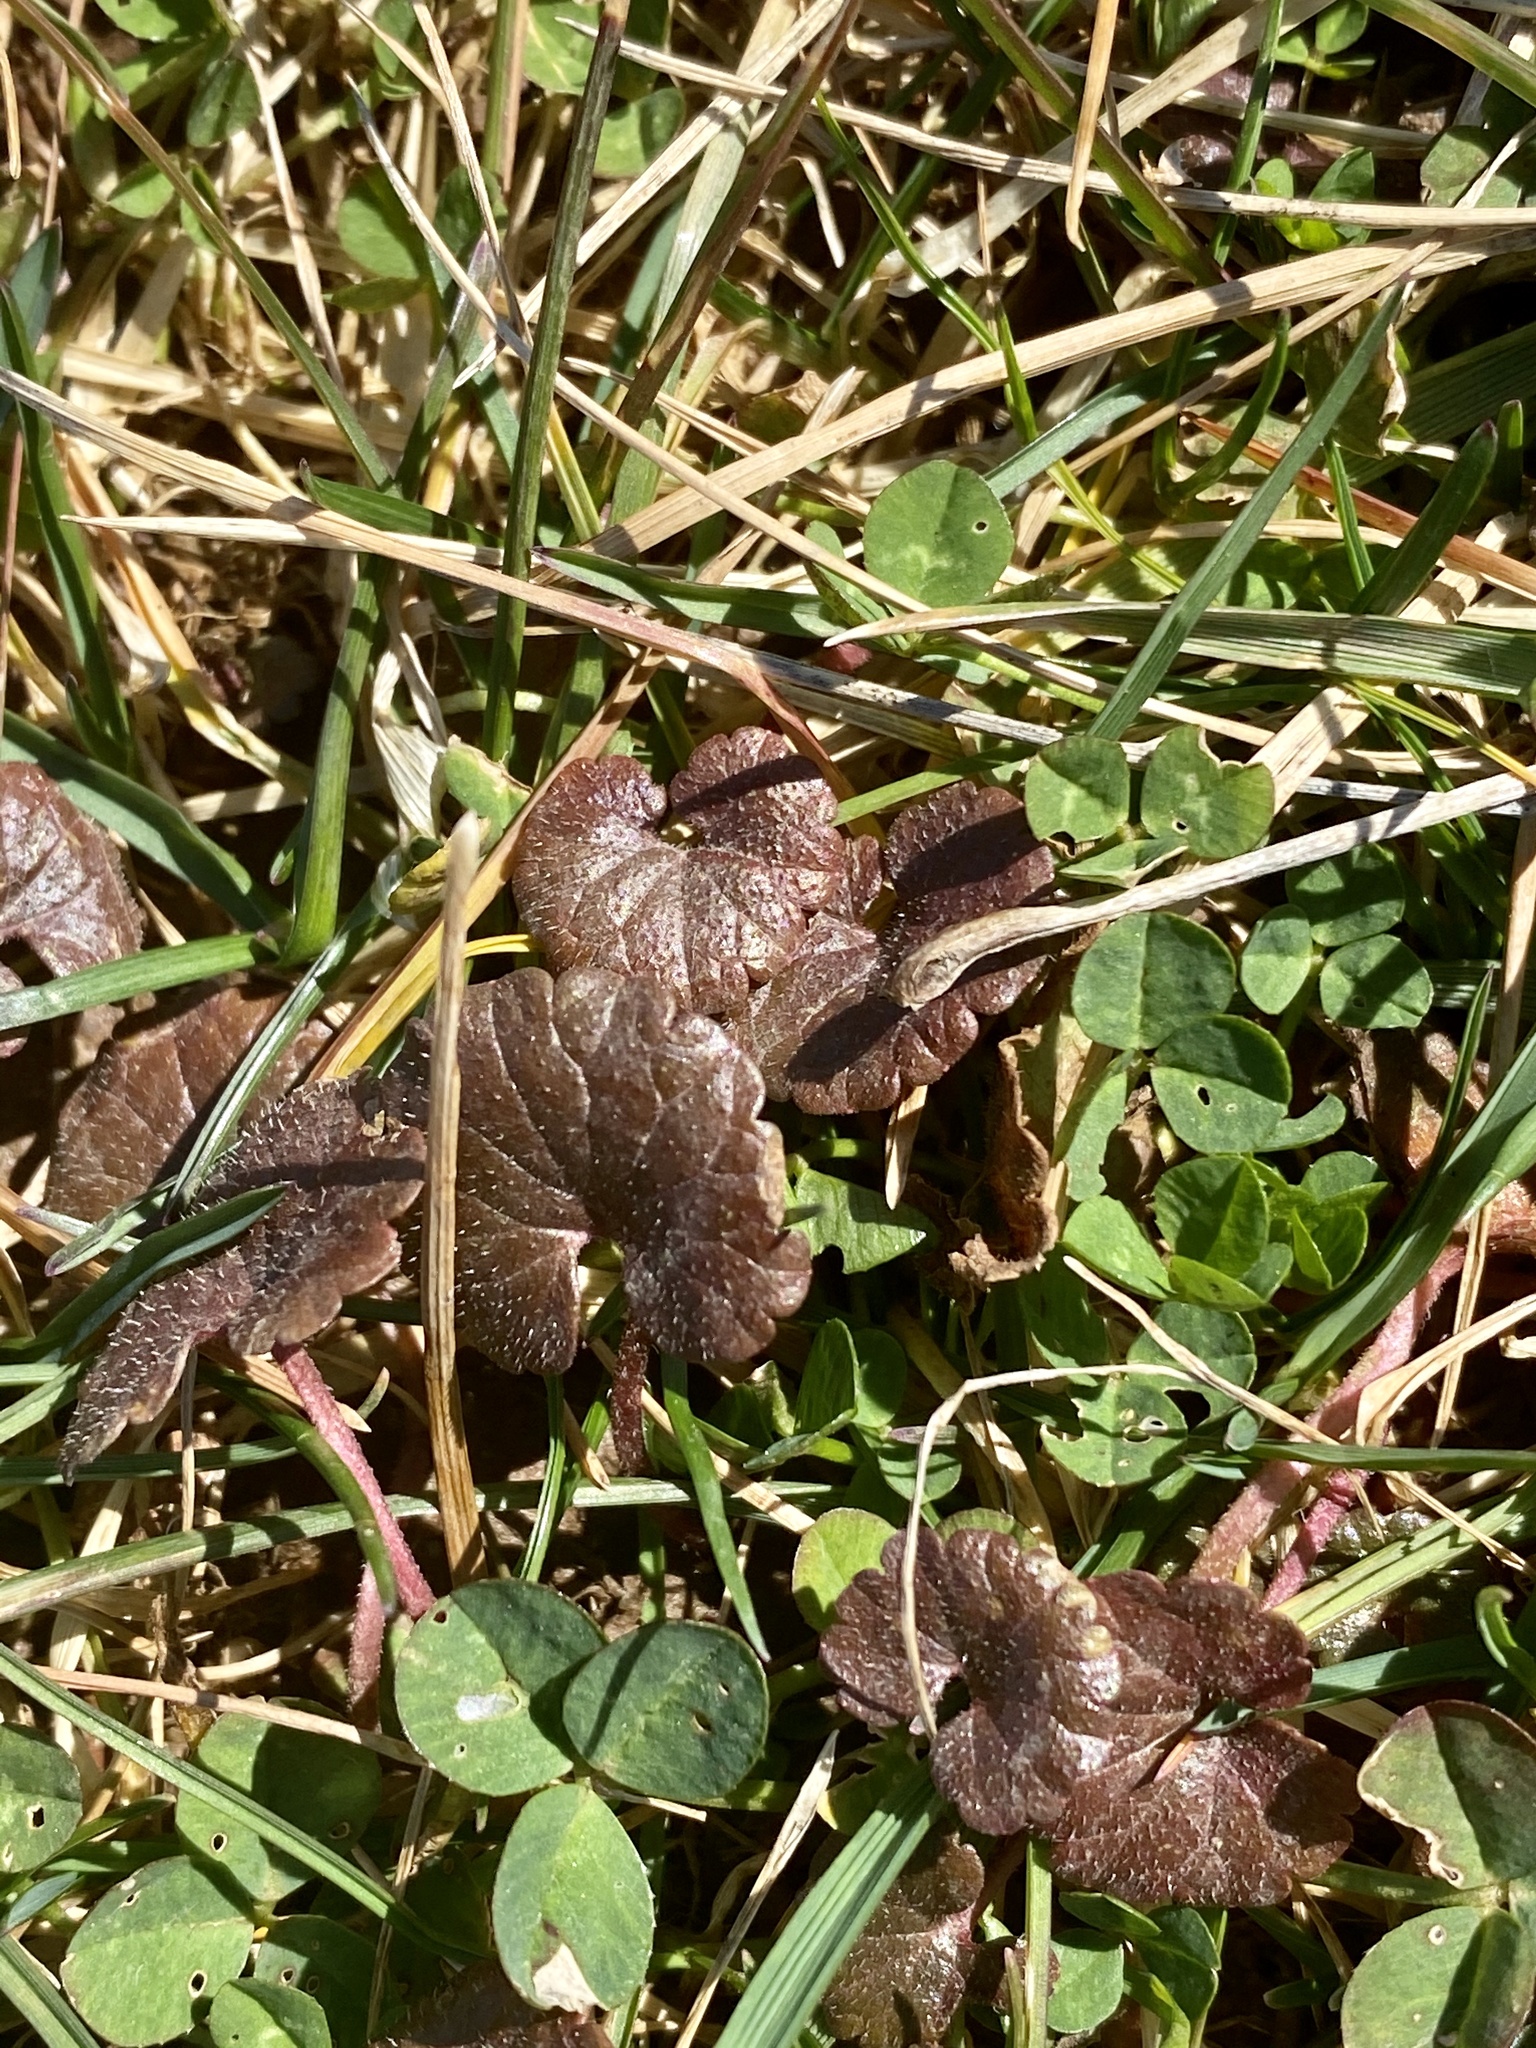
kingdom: Plantae
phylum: Tracheophyta
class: Magnoliopsida
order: Lamiales
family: Lamiaceae
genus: Glechoma
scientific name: Glechoma hederacea
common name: Ground ivy
